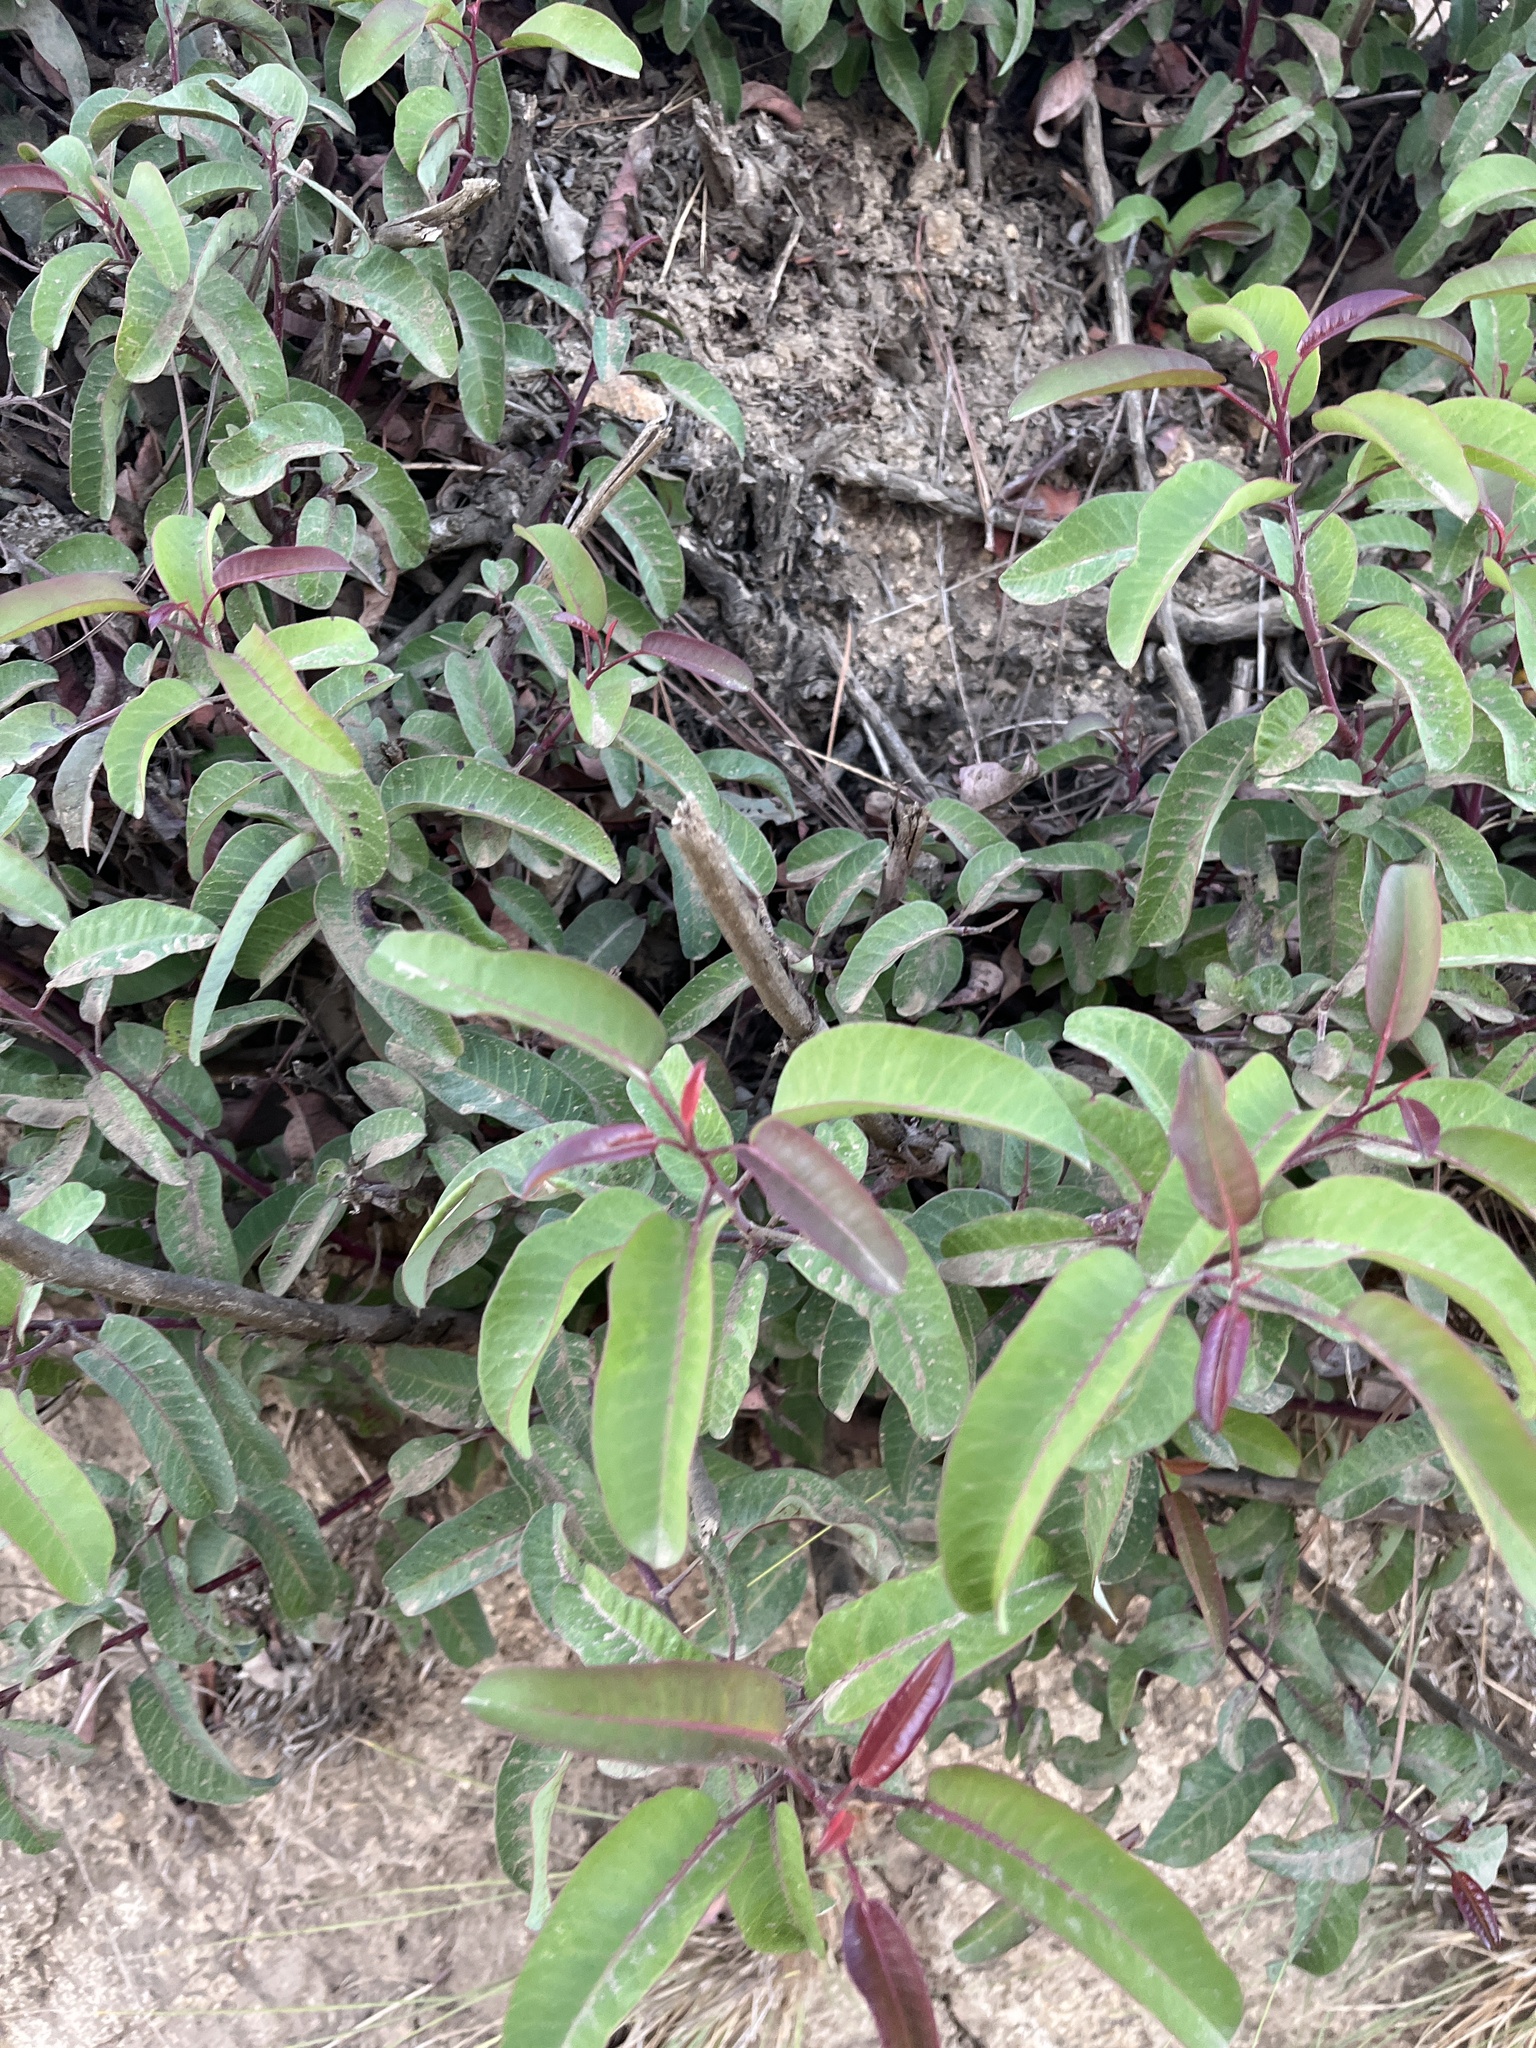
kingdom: Plantae
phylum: Tracheophyta
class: Magnoliopsida
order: Sapindales
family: Anacardiaceae
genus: Malosma
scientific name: Malosma laurina
